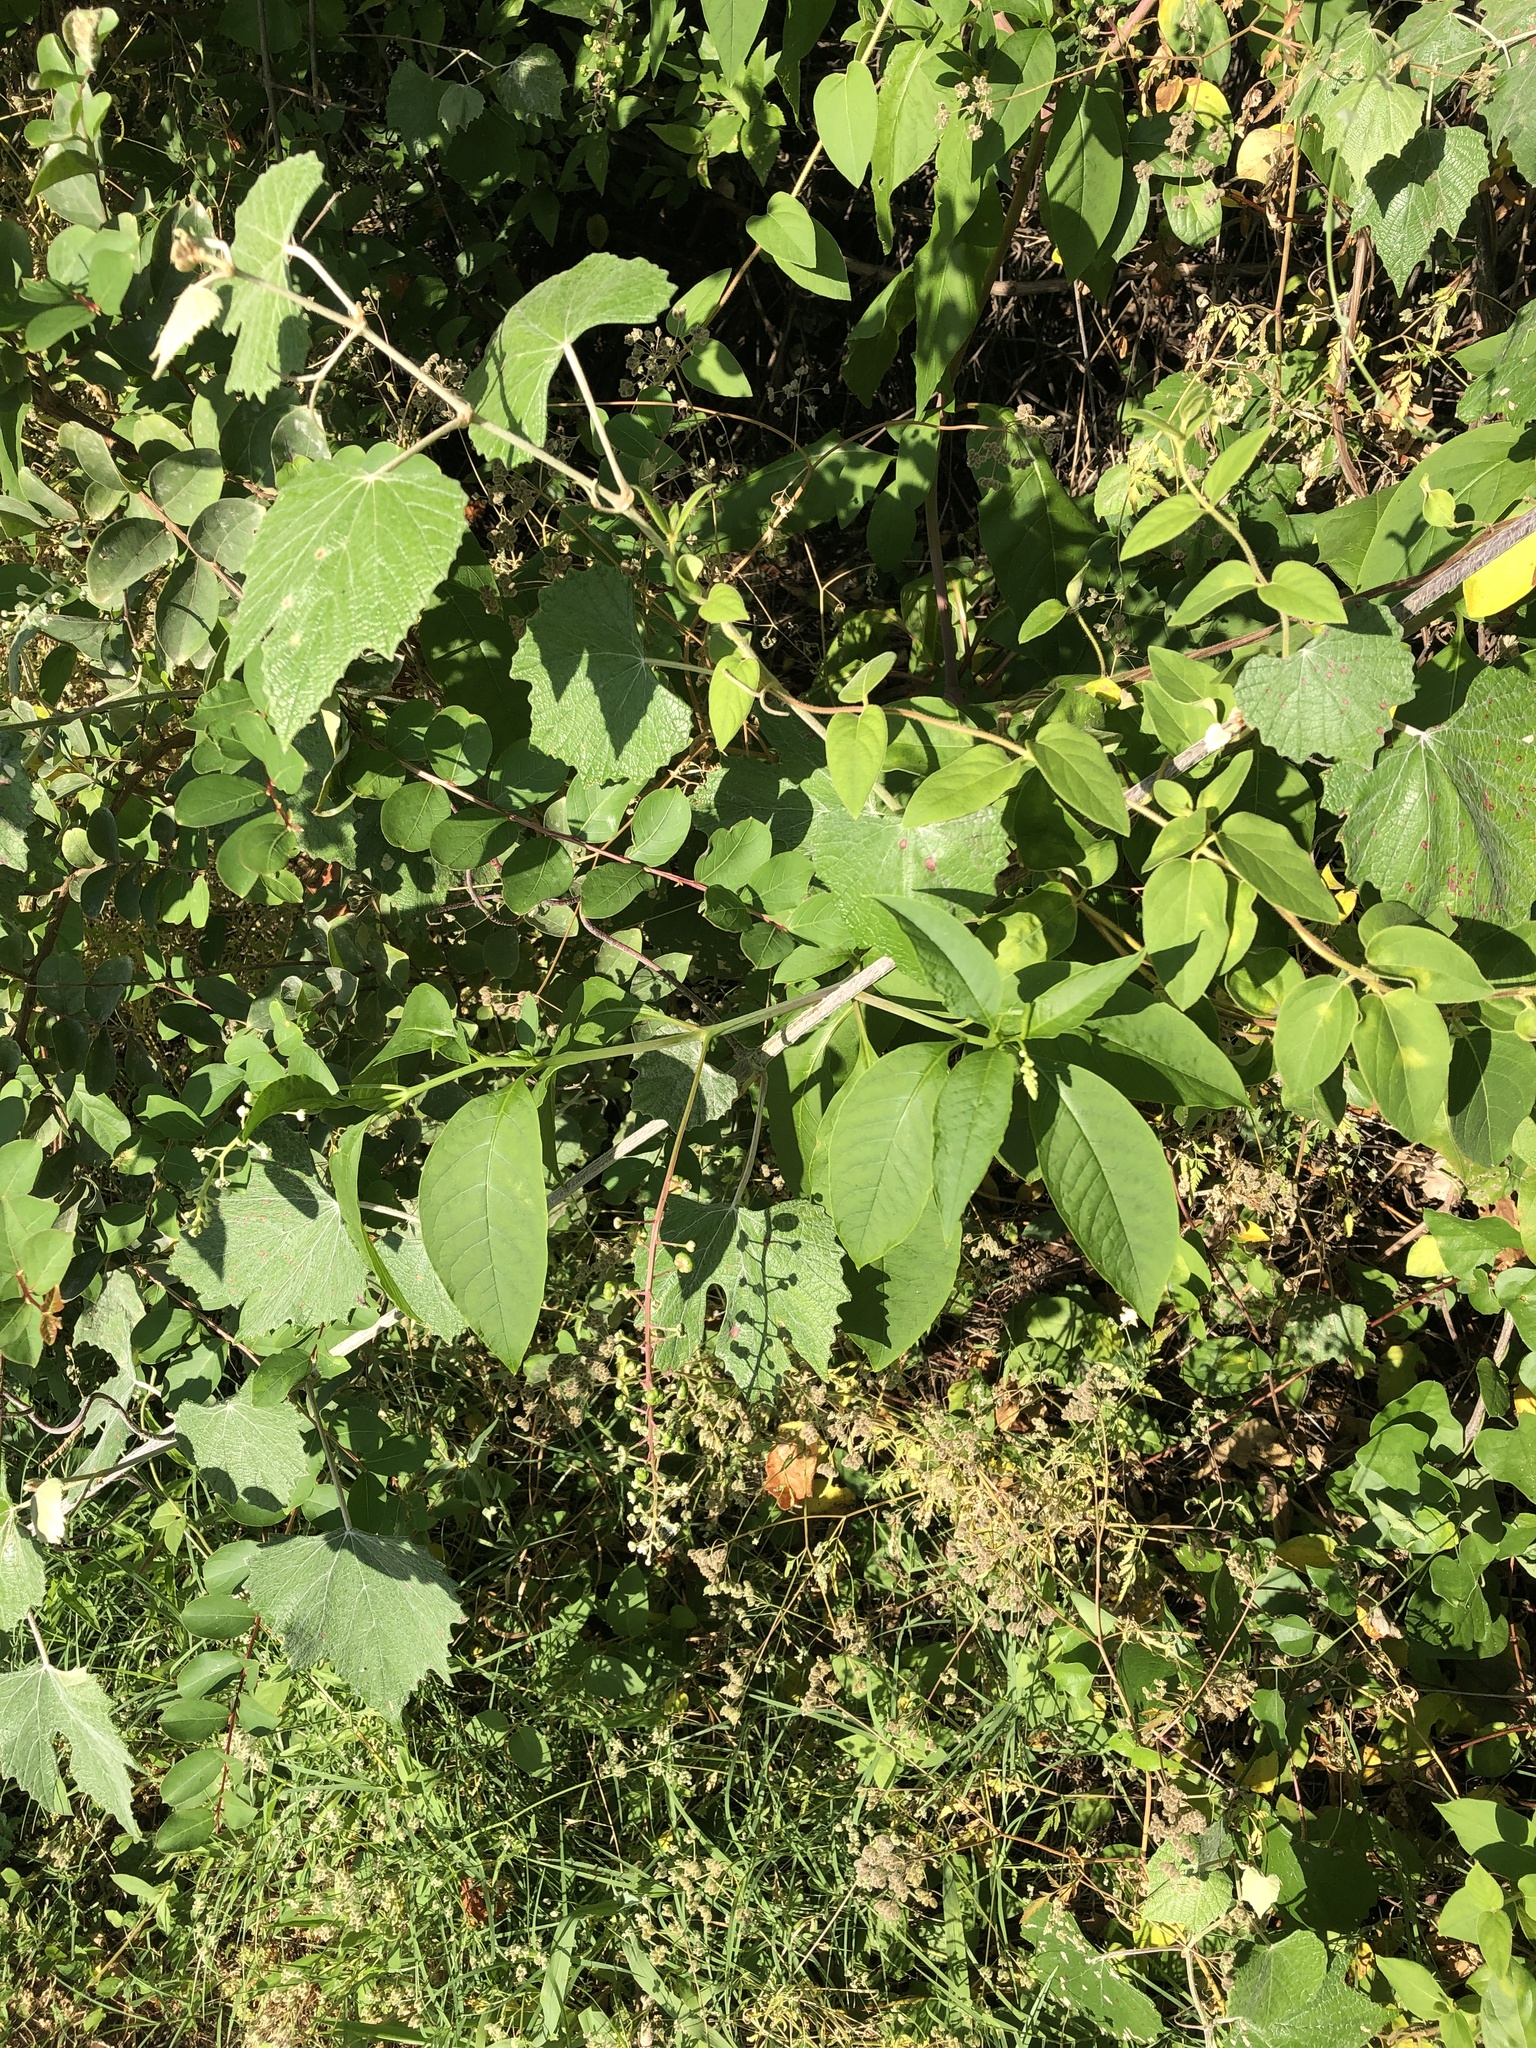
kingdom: Plantae
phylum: Tracheophyta
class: Magnoliopsida
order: Caryophyllales
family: Phytolaccaceae
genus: Phytolacca
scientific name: Phytolacca americana
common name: American pokeweed
